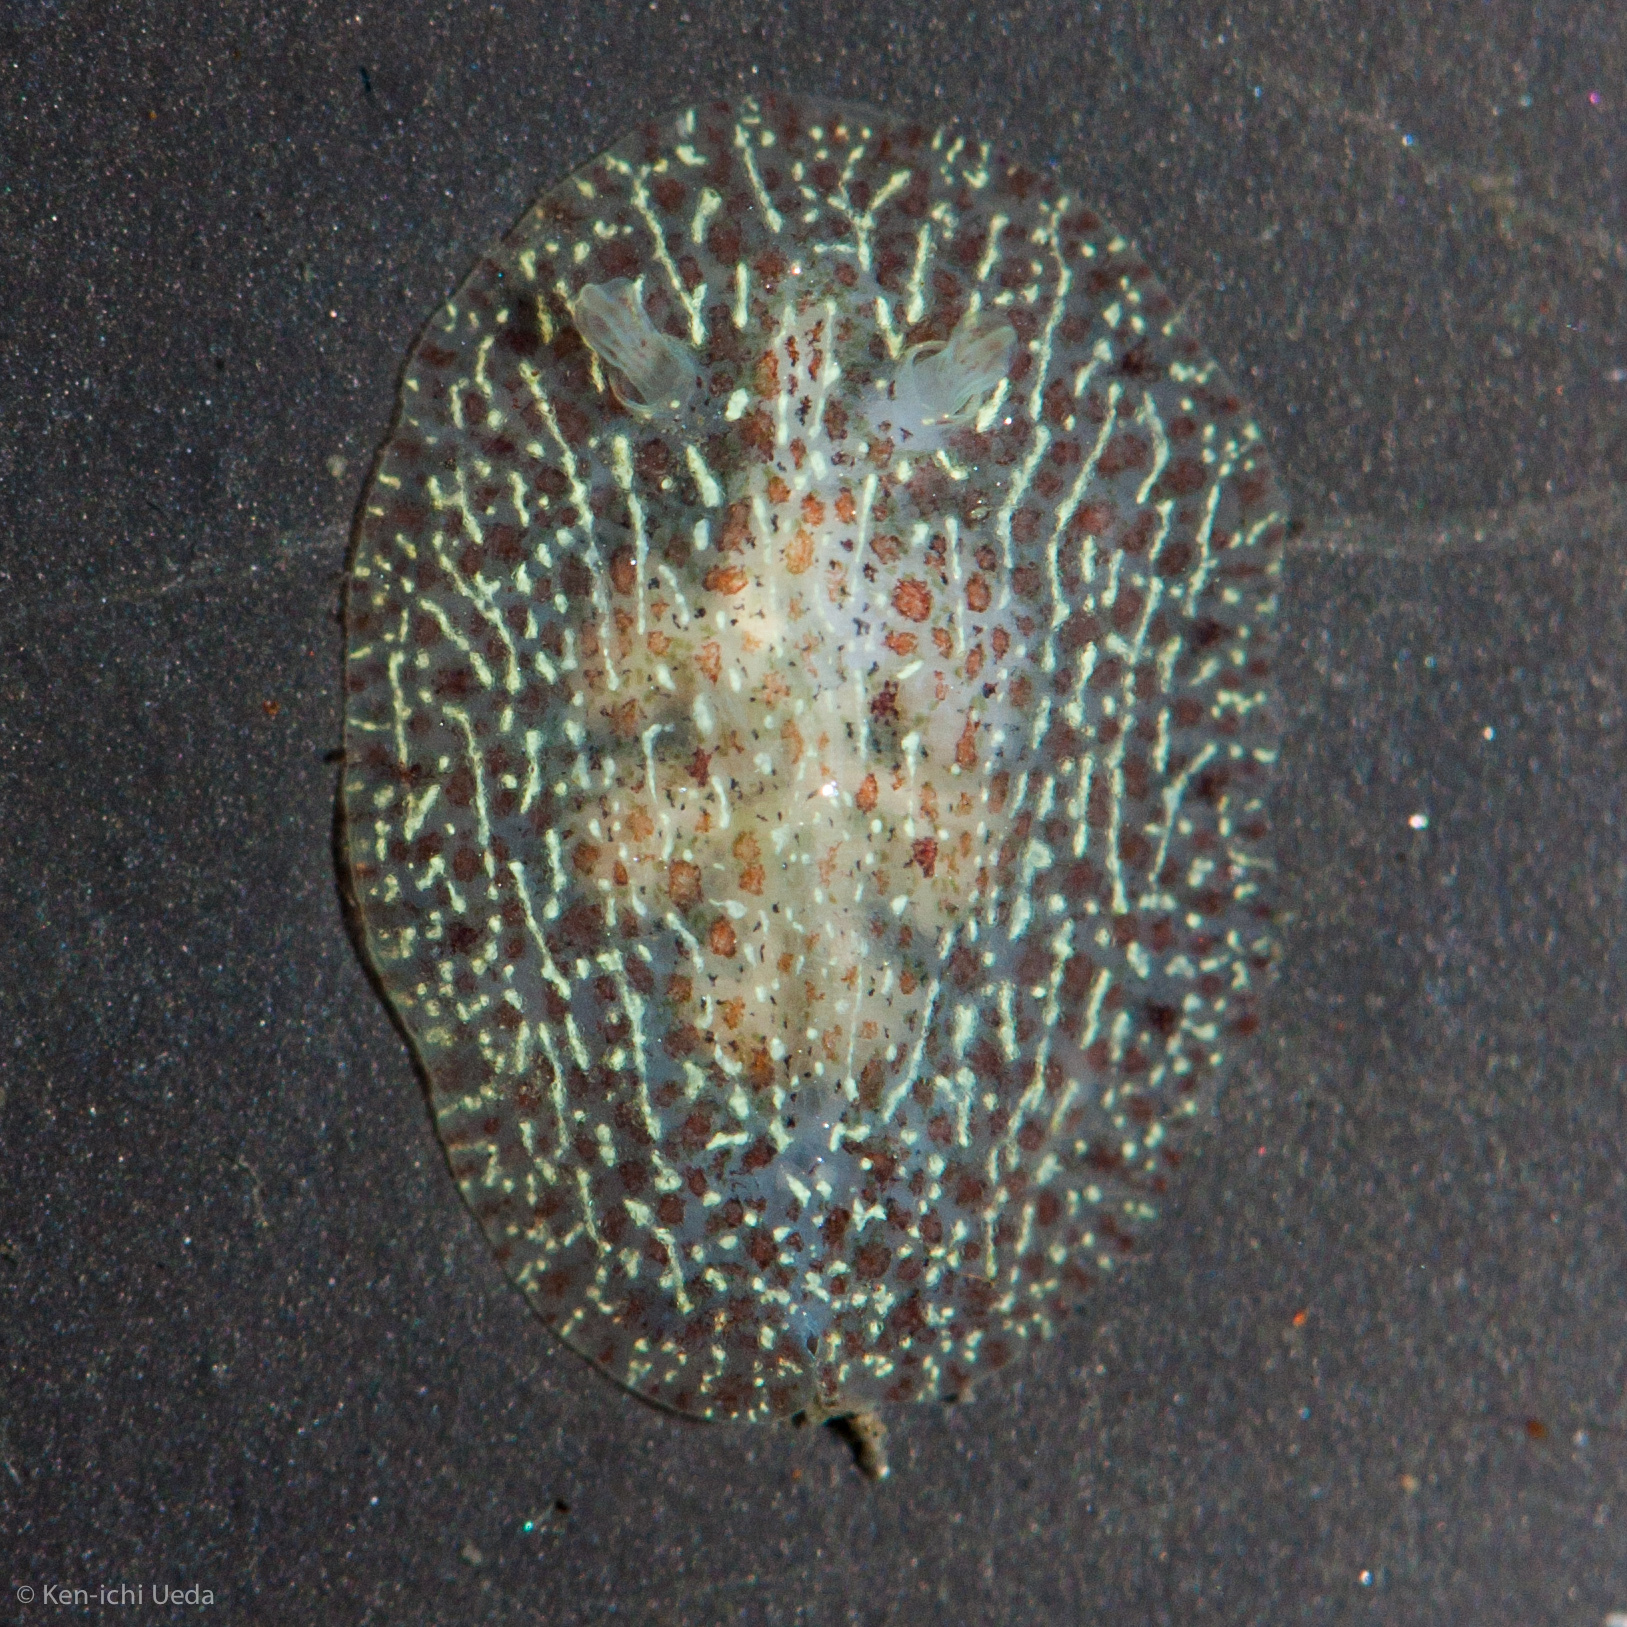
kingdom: Animalia
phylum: Mollusca
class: Gastropoda
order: Nudibranchia
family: Corambidae
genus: Corambe
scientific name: Corambe pacifica
